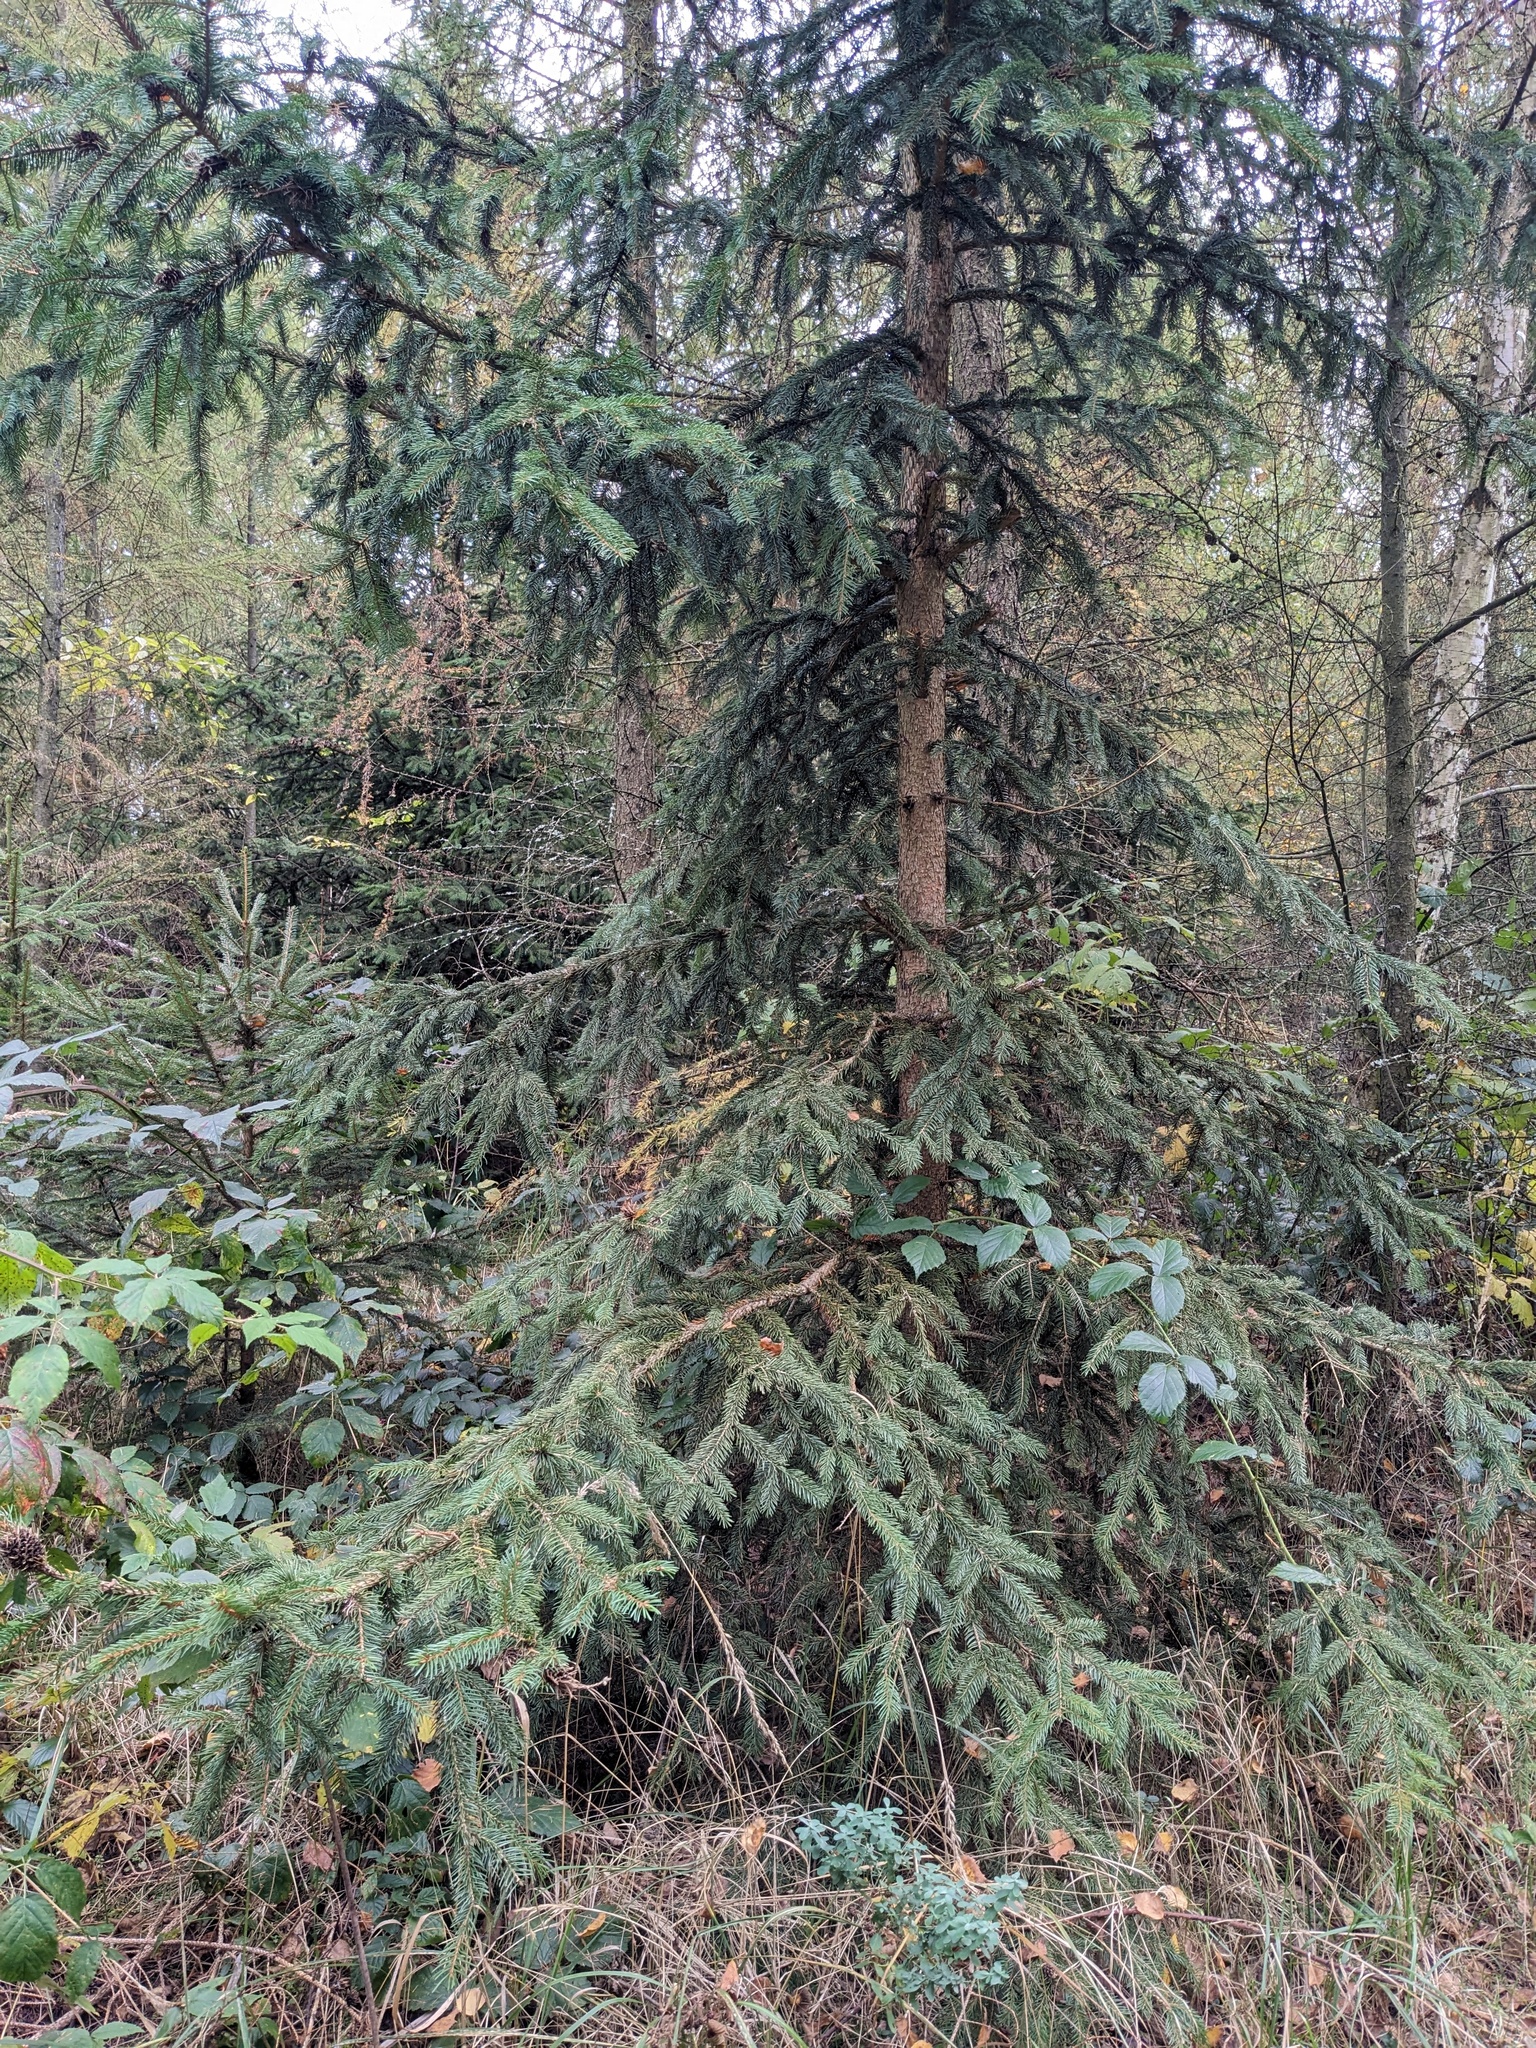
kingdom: Plantae
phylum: Tracheophyta
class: Pinopsida
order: Pinales
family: Pinaceae
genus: Picea
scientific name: Picea abies
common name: Norway spruce
